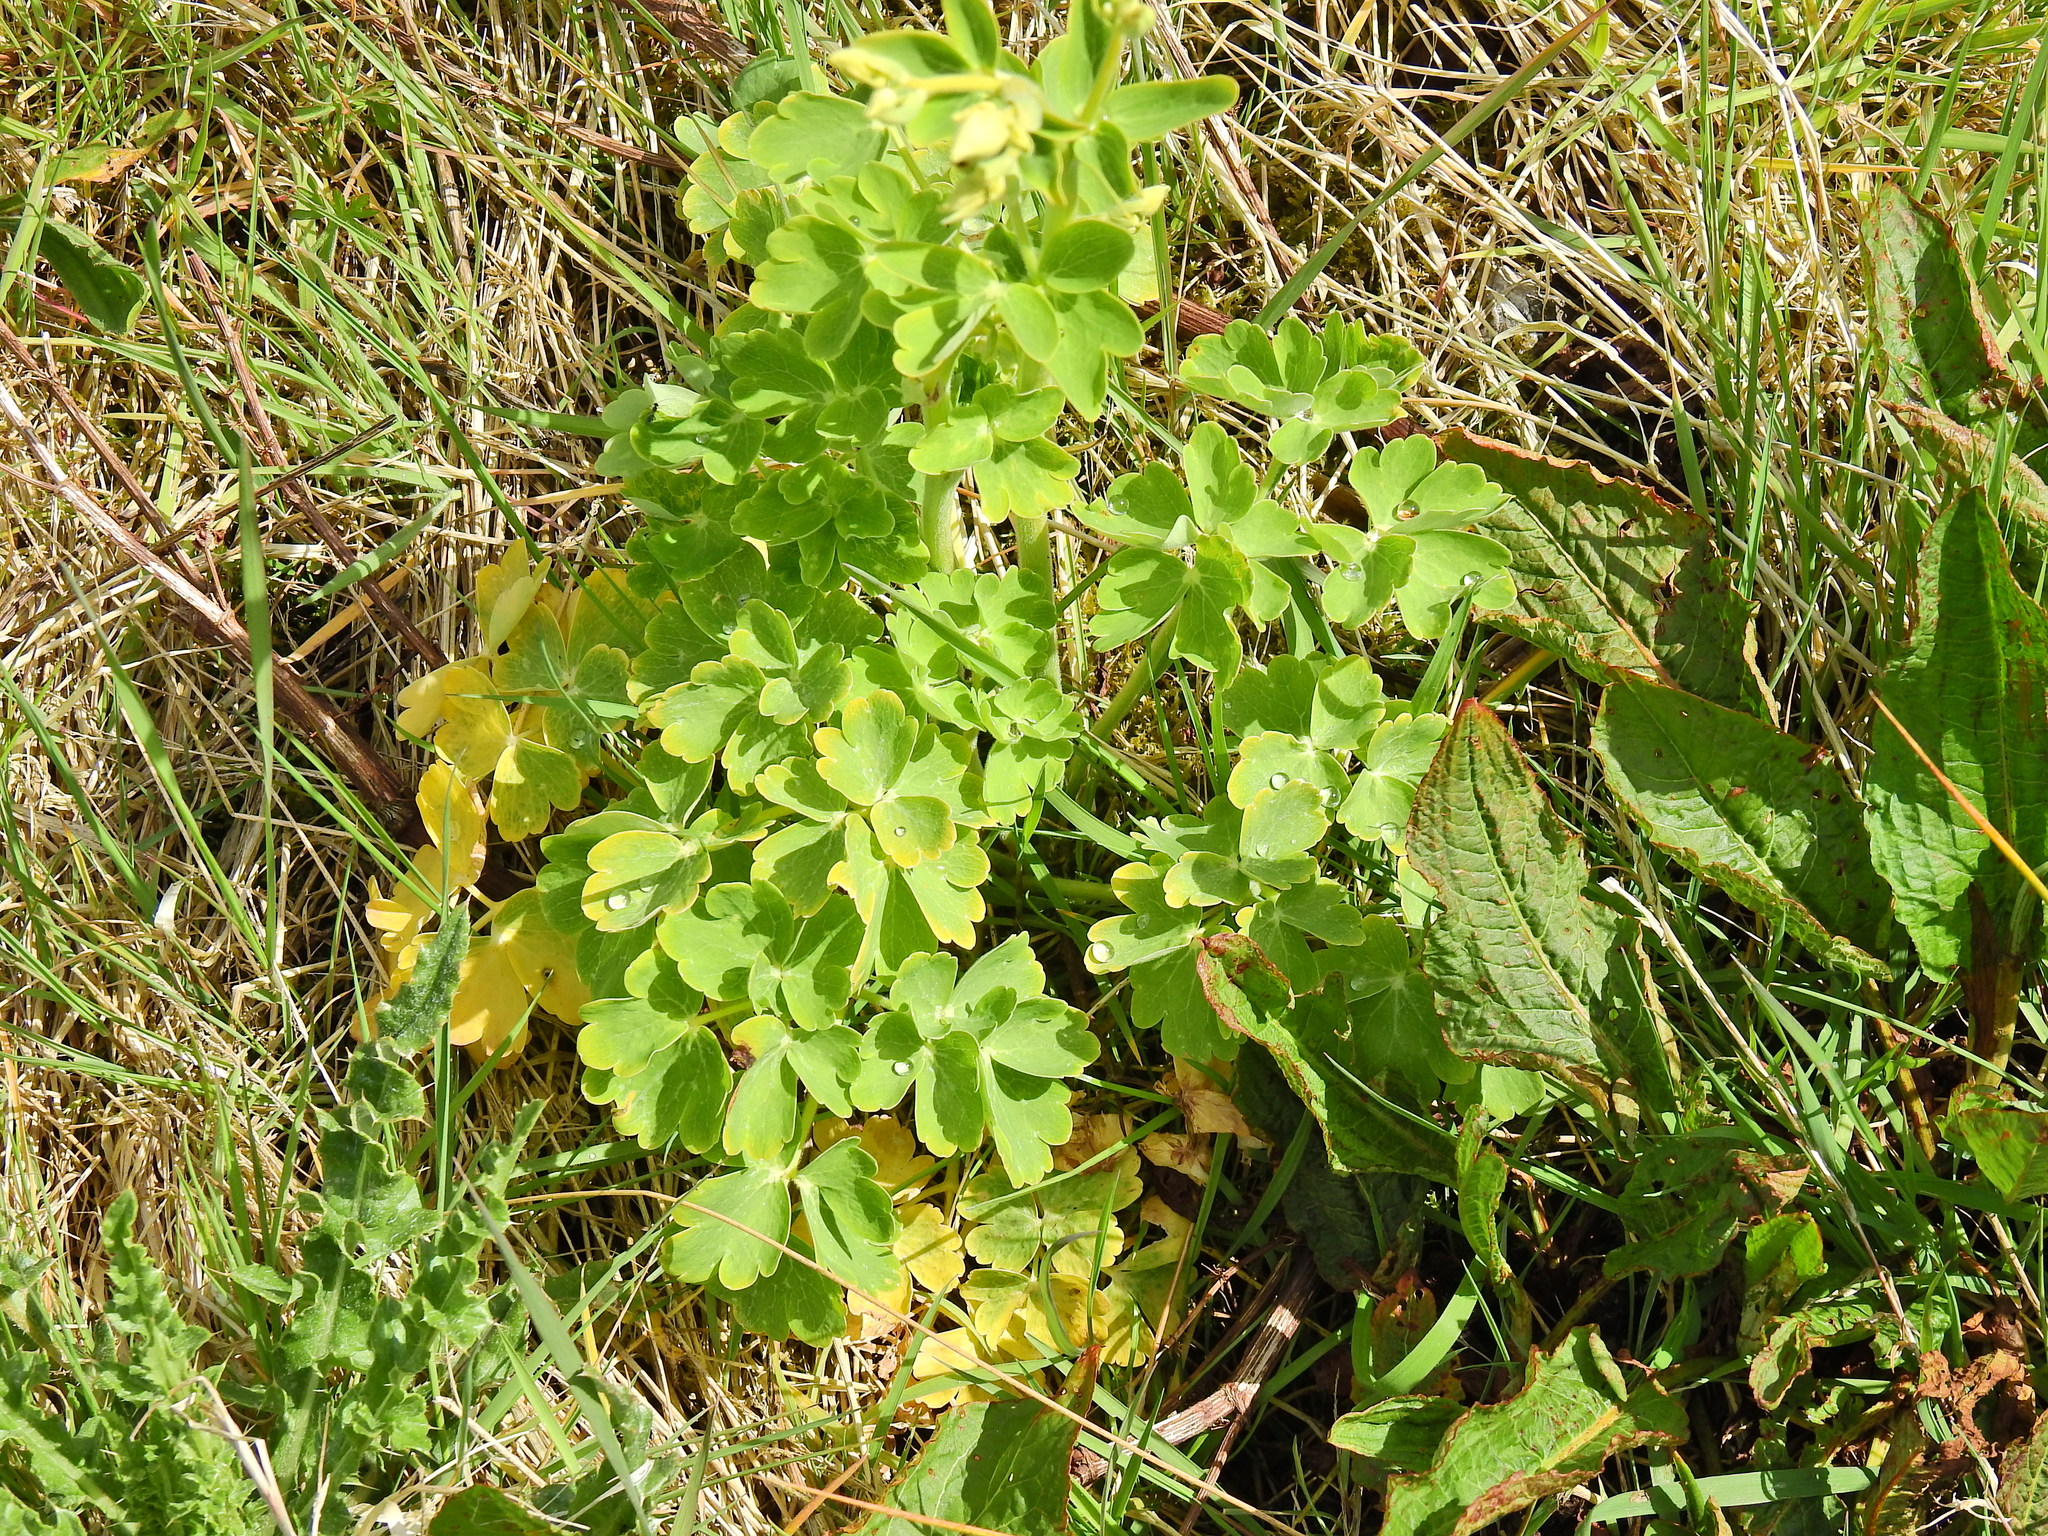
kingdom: Plantae
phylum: Tracheophyta
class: Magnoliopsida
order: Ranunculales
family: Ranunculaceae
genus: Aquilegia
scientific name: Aquilegia vulgaris
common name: Columbine
